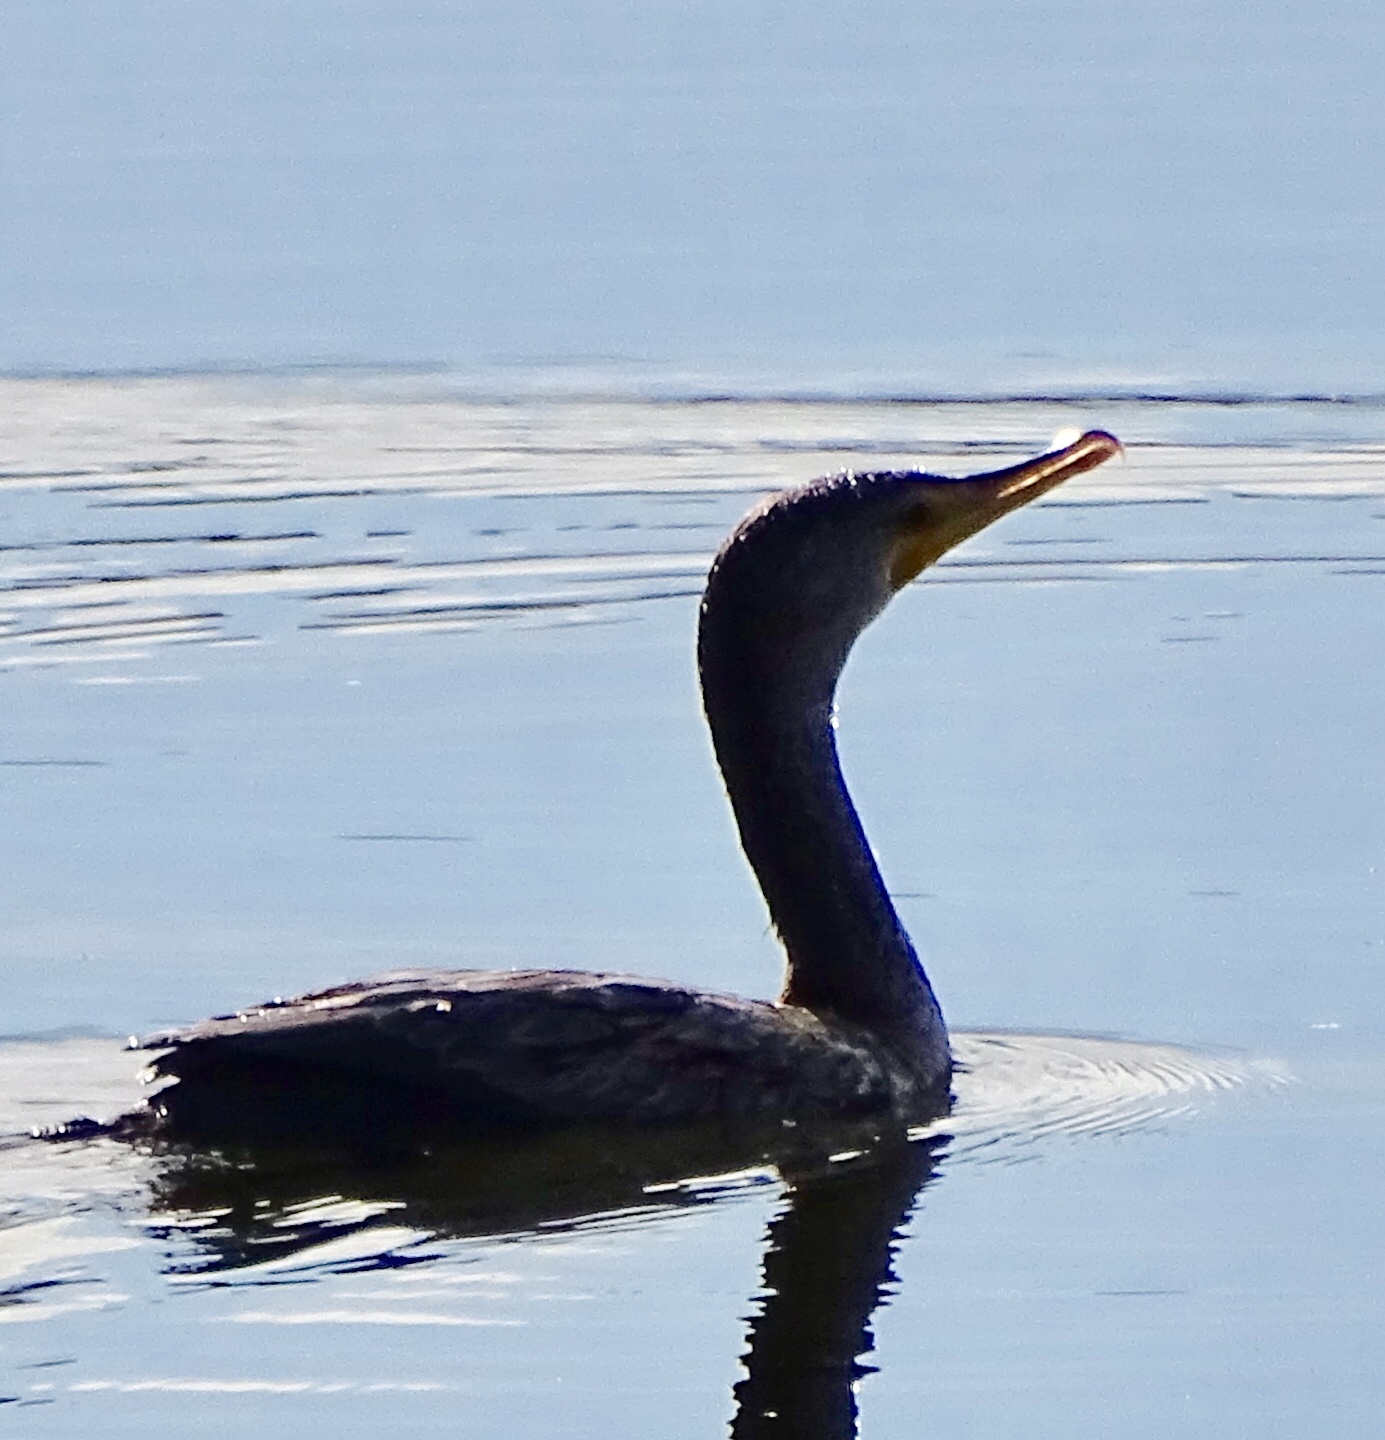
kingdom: Animalia
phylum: Chordata
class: Aves
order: Suliformes
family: Phalacrocoracidae
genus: Phalacrocorax
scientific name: Phalacrocorax auritus
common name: Double-crested cormorant
